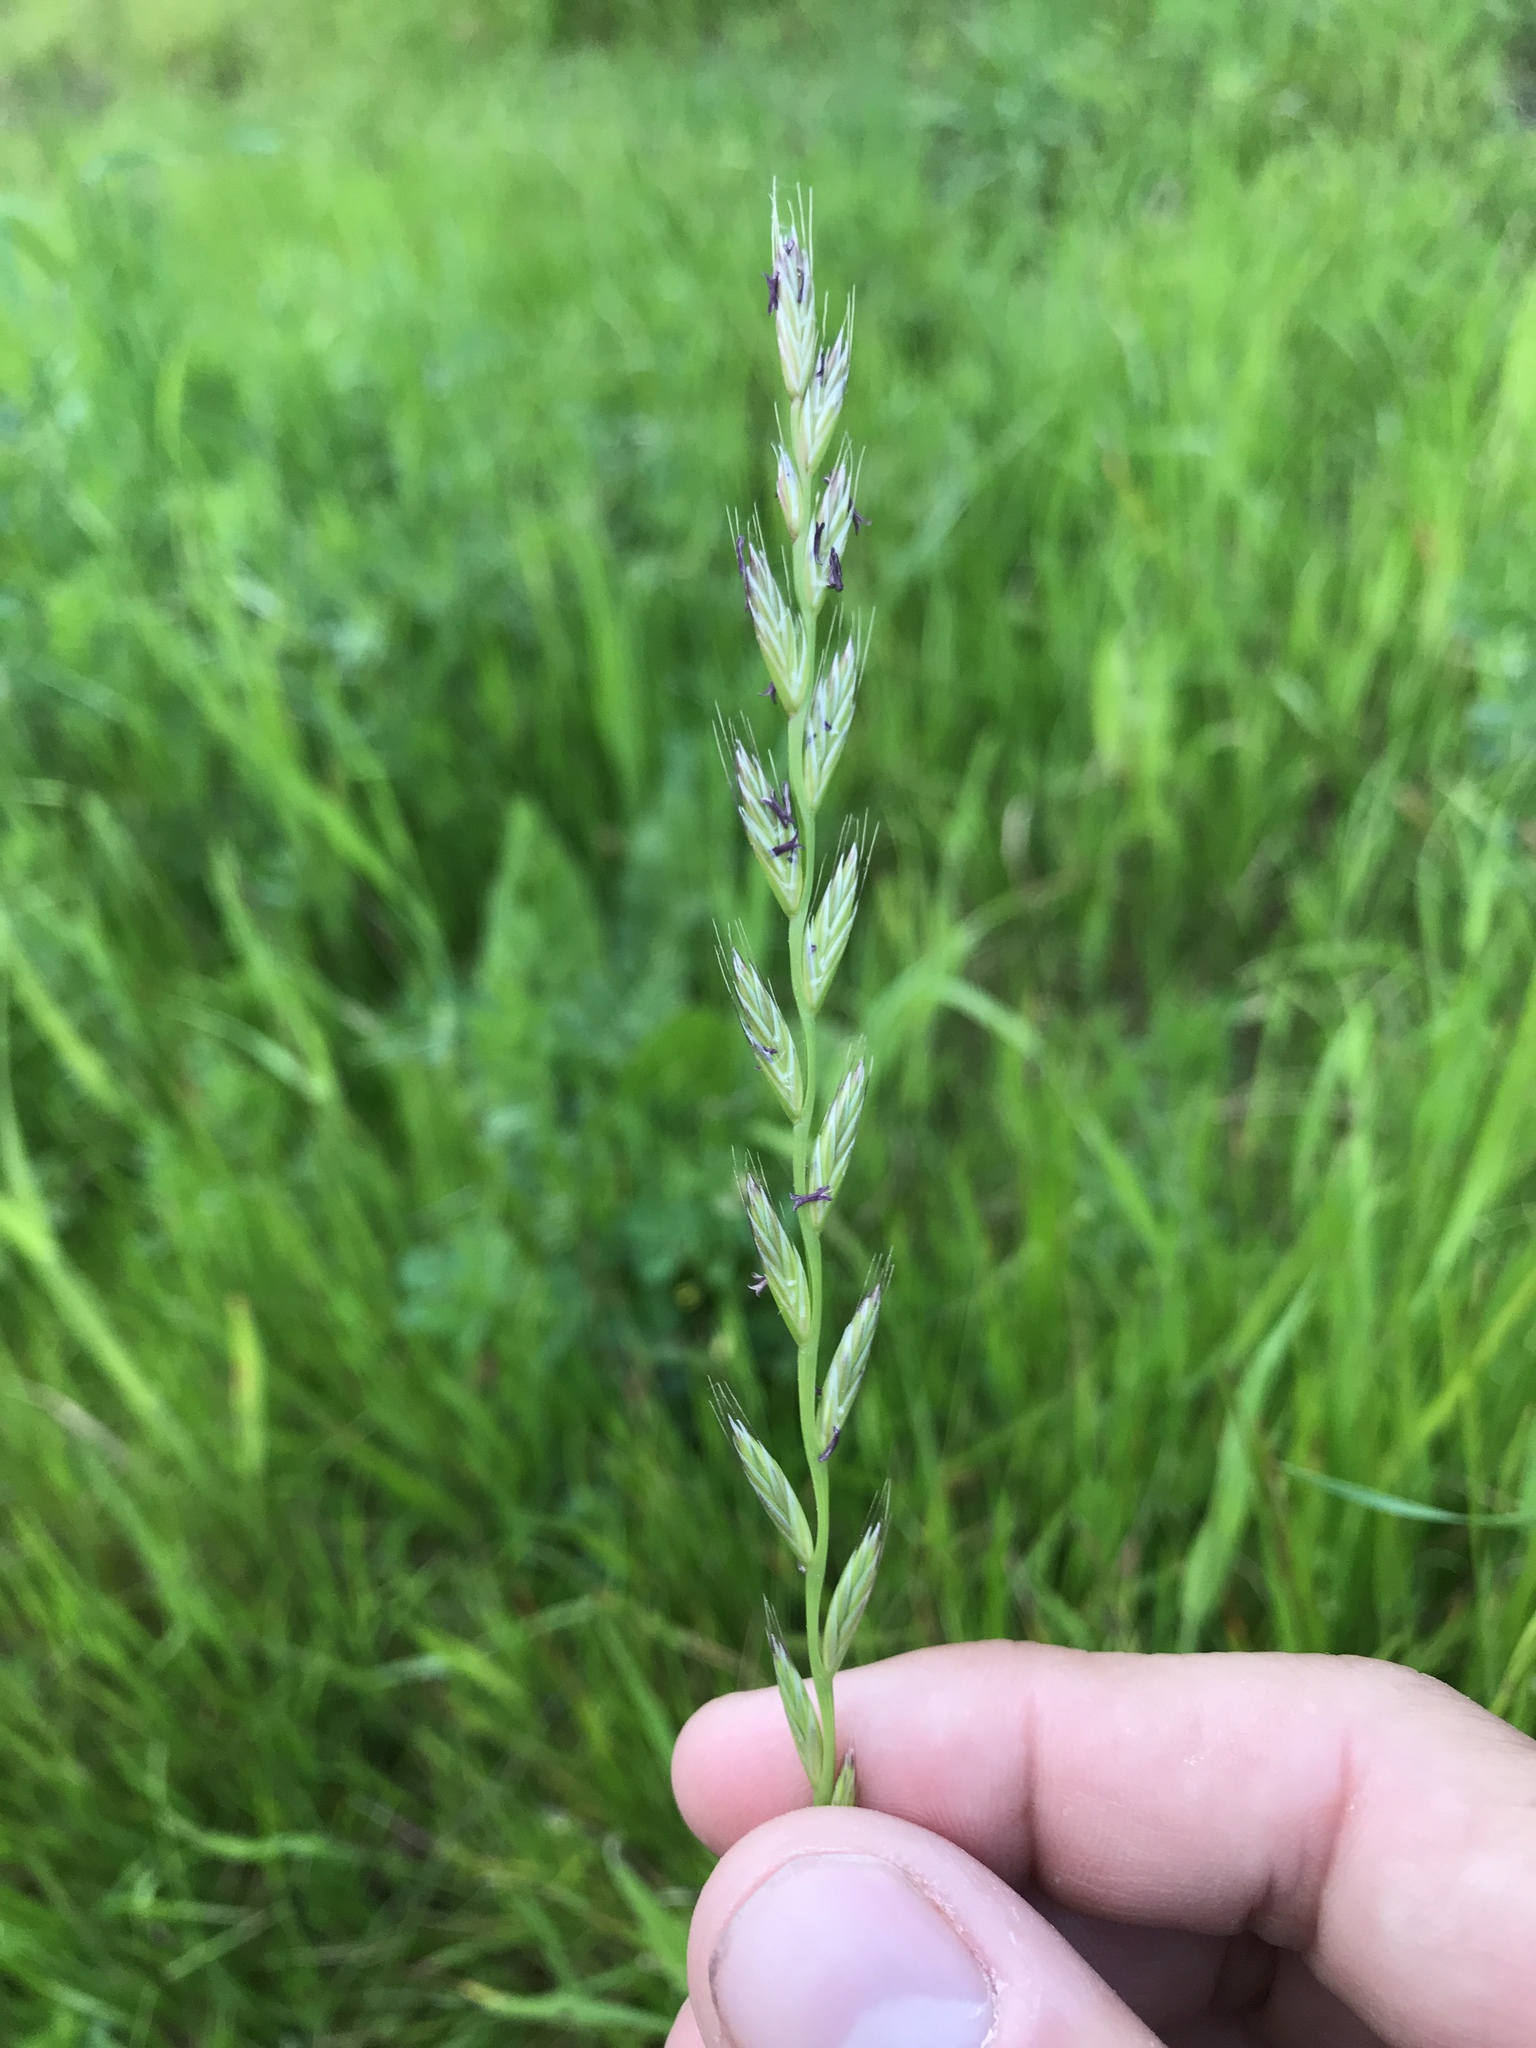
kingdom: Plantae
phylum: Tracheophyta
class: Liliopsida
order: Poales
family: Poaceae
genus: Lolium
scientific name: Lolium multiflorum
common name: Annual ryegrass
